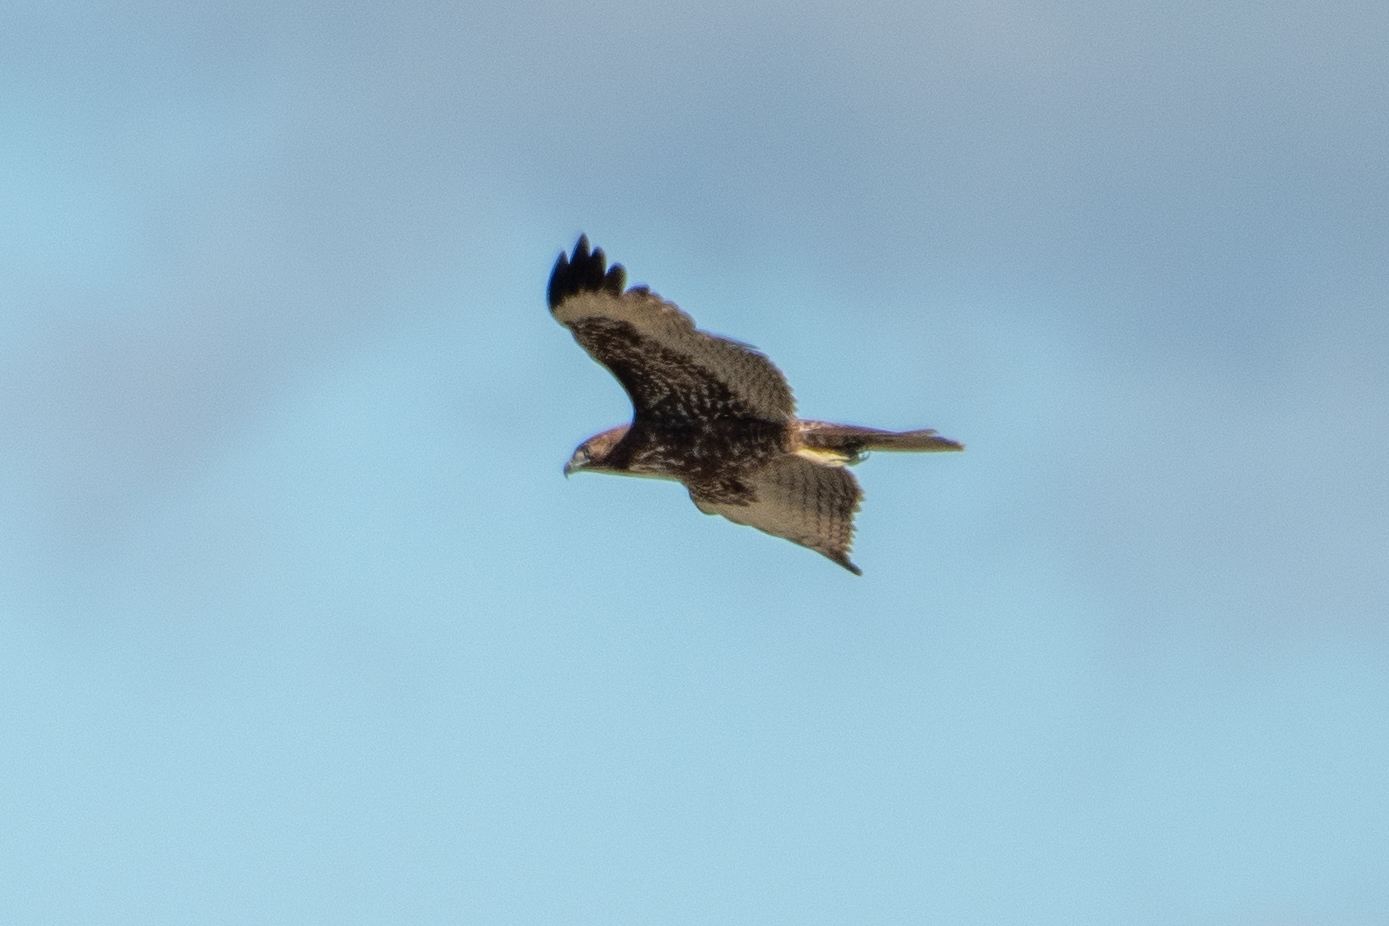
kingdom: Animalia
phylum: Chordata
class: Aves
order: Accipitriformes
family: Accipitridae
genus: Buteo
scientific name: Buteo jamaicensis
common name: Red-tailed hawk
